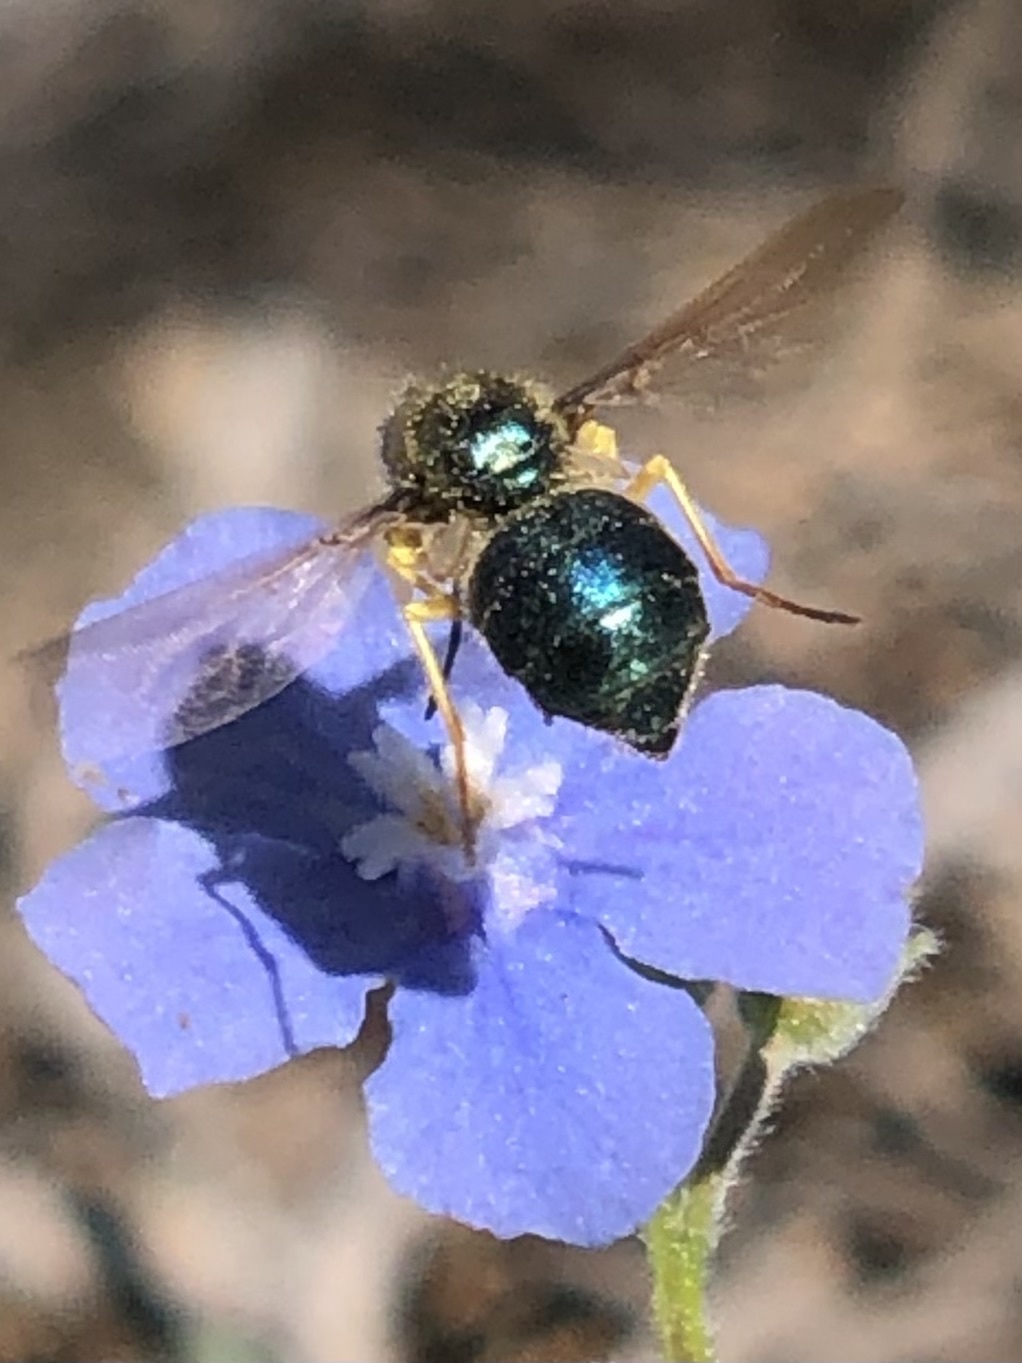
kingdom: Animalia
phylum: Arthropoda
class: Insecta
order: Diptera
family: Acroceridae
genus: Eulonchus
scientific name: Eulonchus sapphirinus
